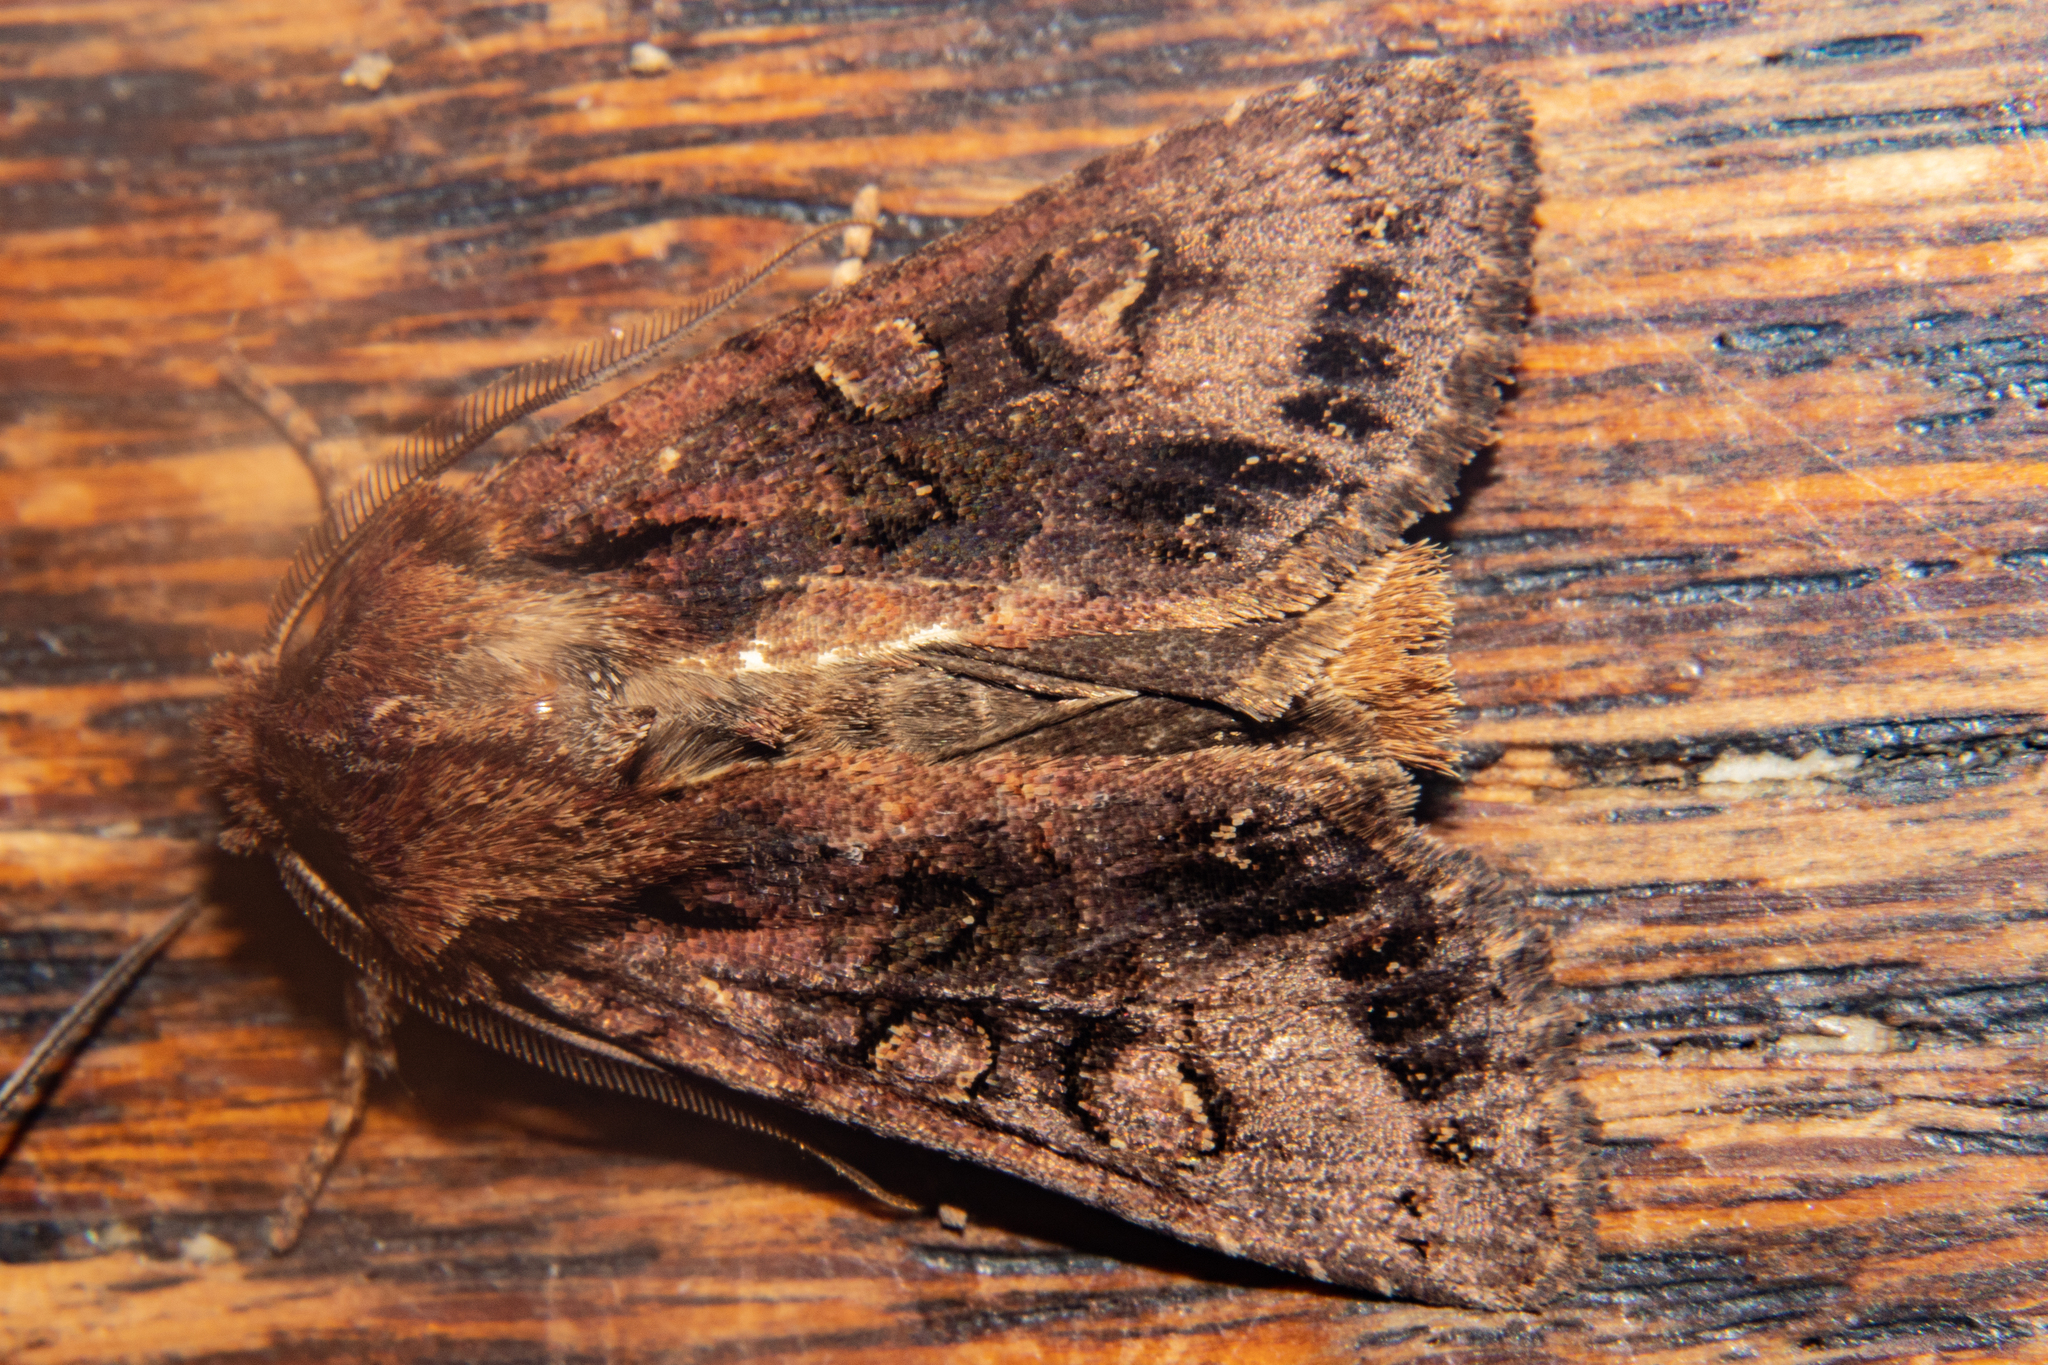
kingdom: Animalia
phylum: Arthropoda
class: Insecta
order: Lepidoptera
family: Noctuidae
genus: Ichneutica
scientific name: Ichneutica
